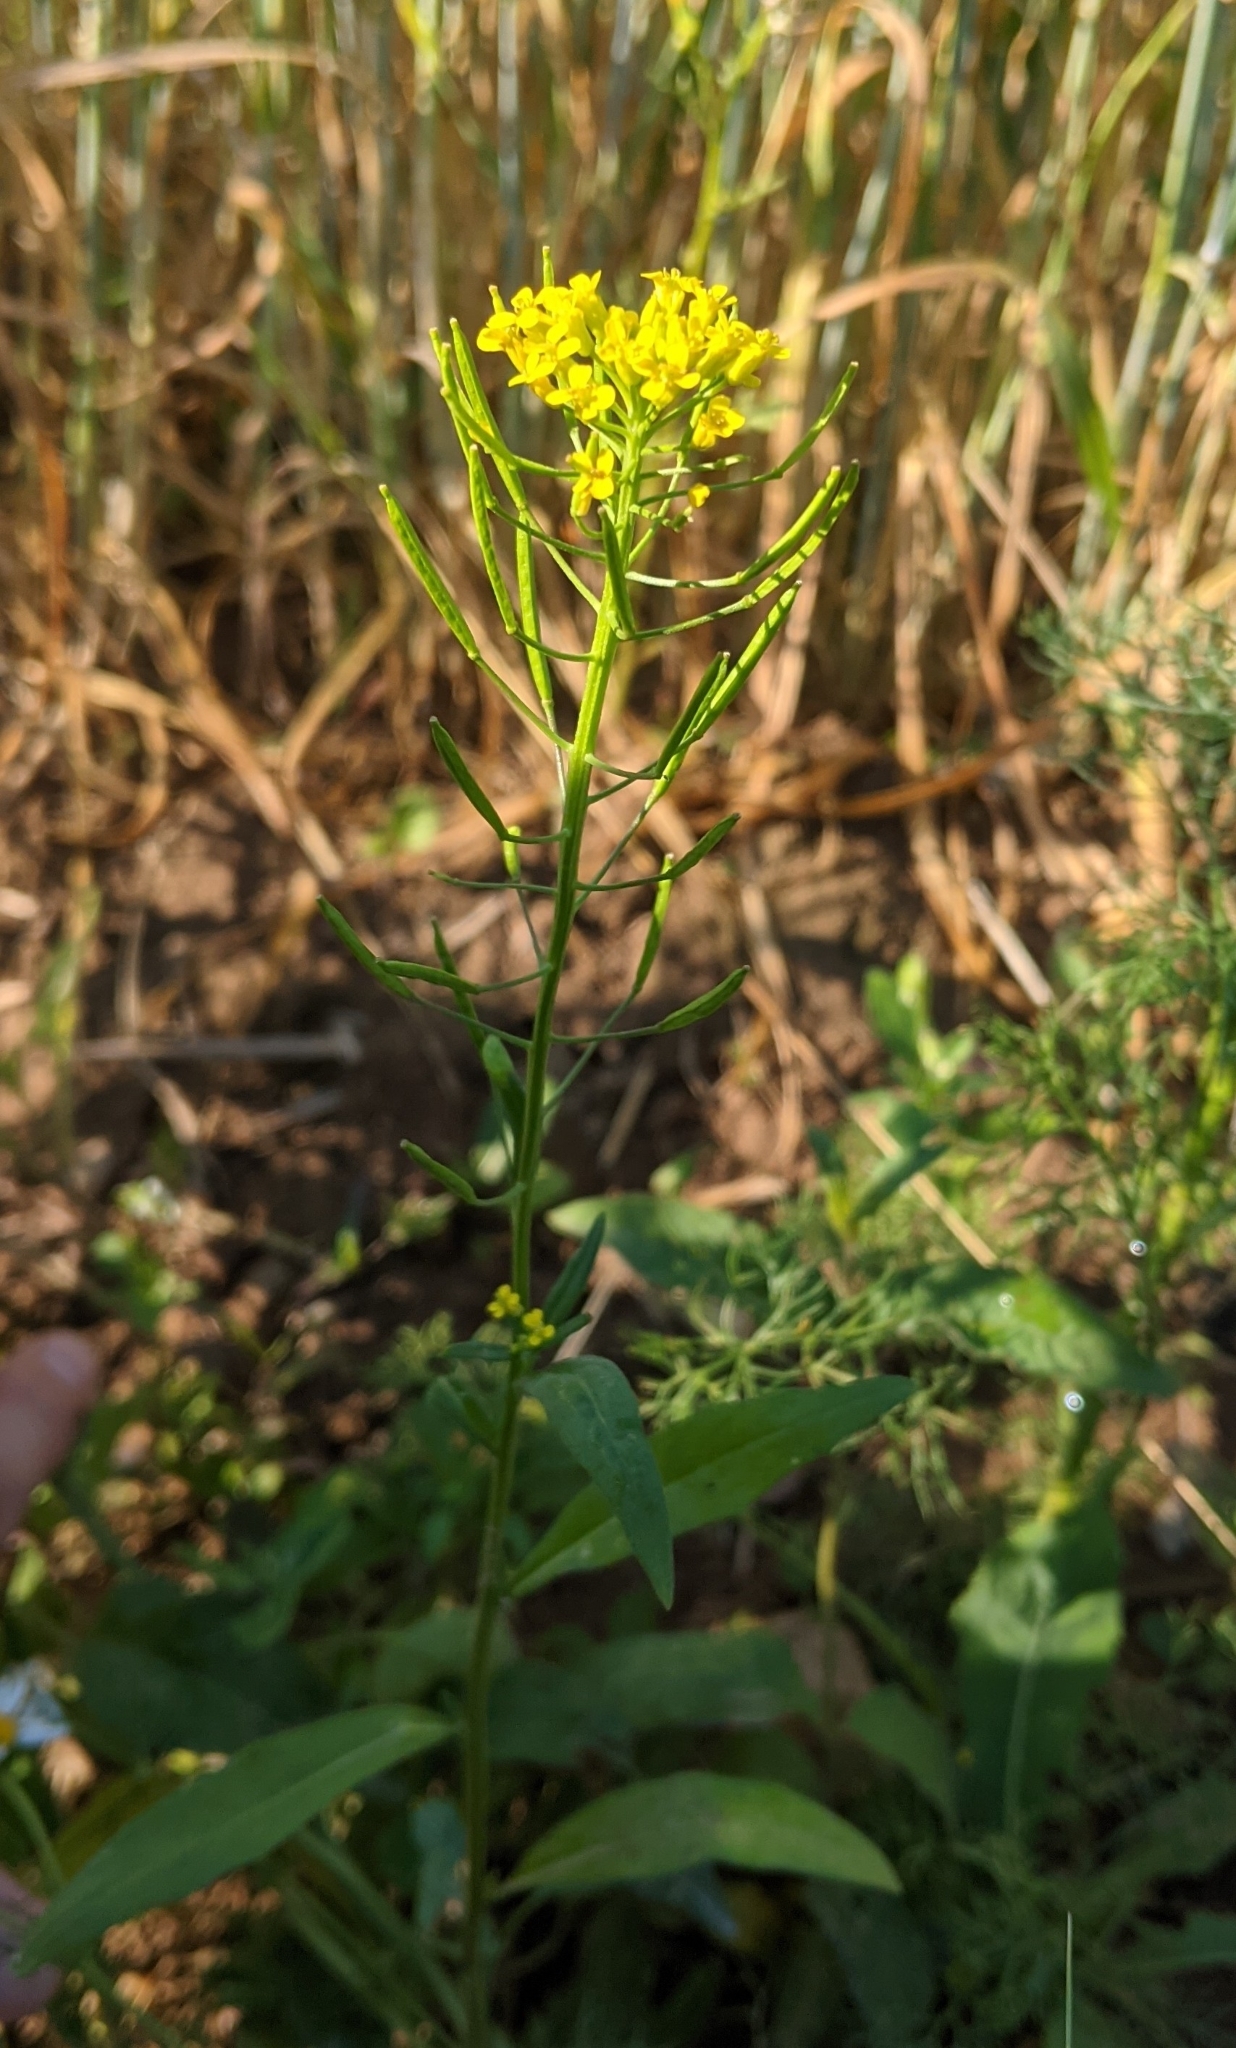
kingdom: Plantae
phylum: Tracheophyta
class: Magnoliopsida
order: Brassicales
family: Brassicaceae
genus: Erysimum
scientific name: Erysimum cheiranthoides
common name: Treacle mustard
